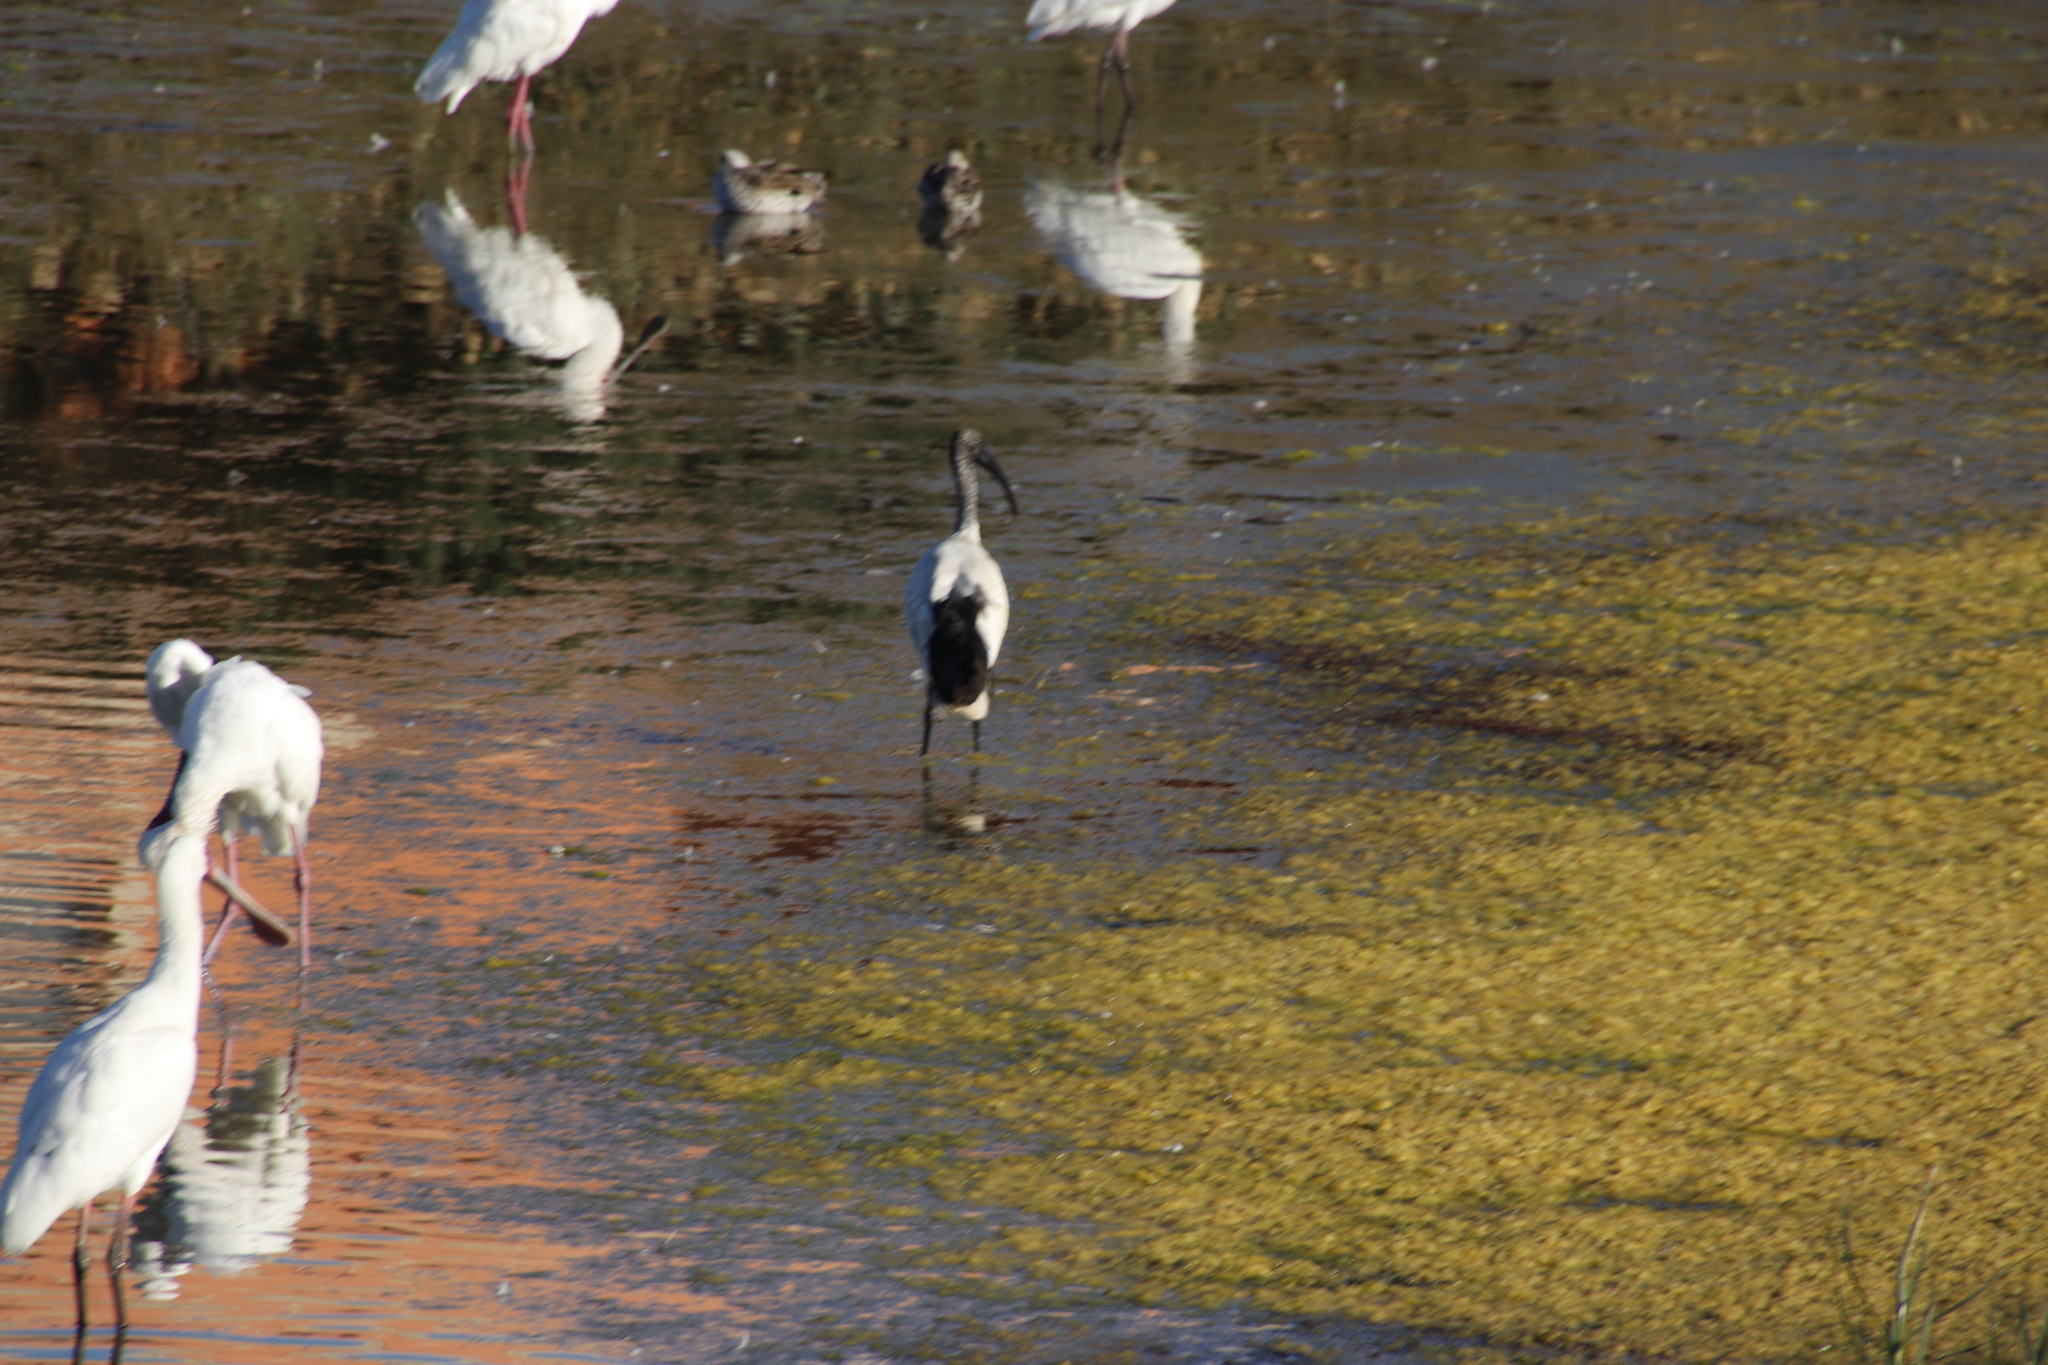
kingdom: Animalia
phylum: Chordata
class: Aves
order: Pelecaniformes
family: Threskiornithidae
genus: Threskiornis
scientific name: Threskiornis aethiopicus
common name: Sacred ibis
